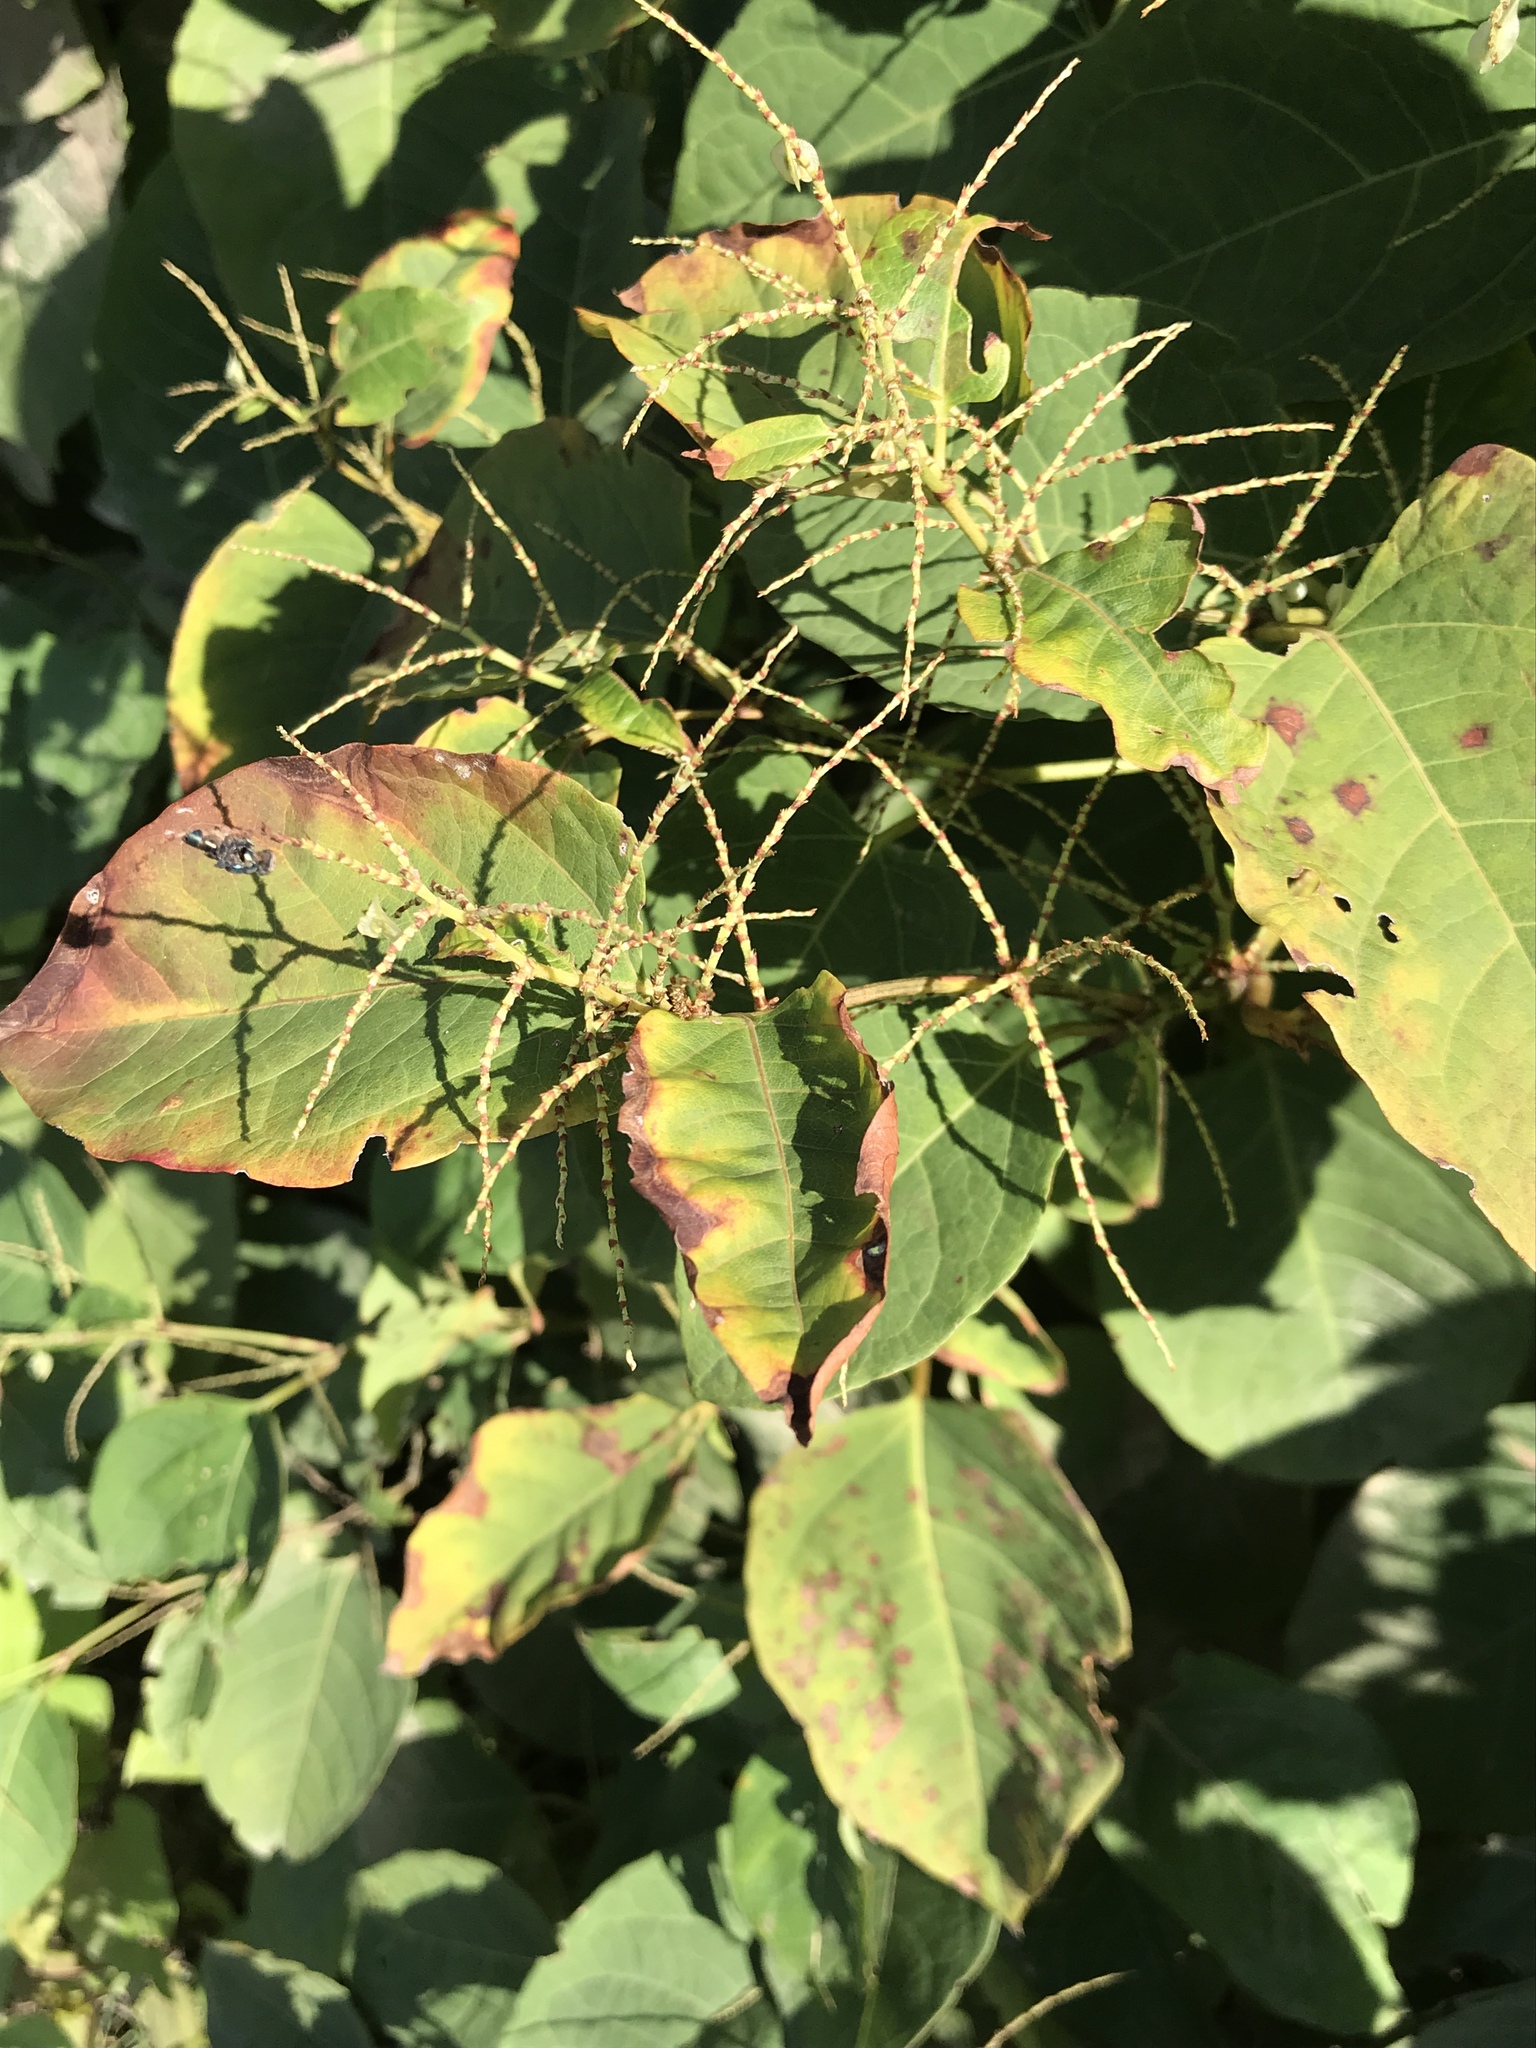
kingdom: Plantae
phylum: Tracheophyta
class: Magnoliopsida
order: Caryophyllales
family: Polygonaceae
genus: Reynoutria
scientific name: Reynoutria japonica
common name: Japanese knotweed
